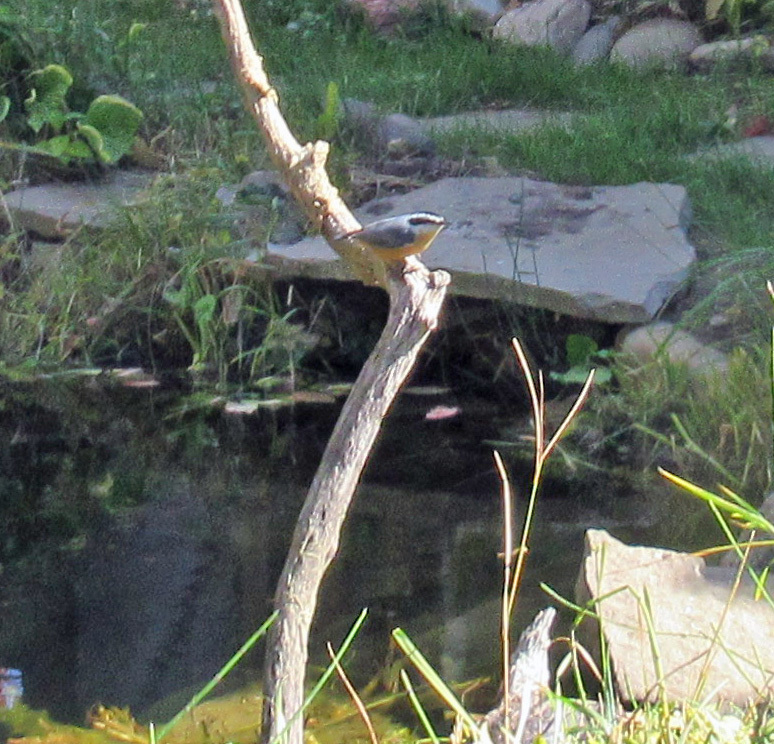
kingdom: Animalia
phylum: Chordata
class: Aves
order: Passeriformes
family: Sittidae
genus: Sitta
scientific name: Sitta canadensis
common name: Red-breasted nuthatch
